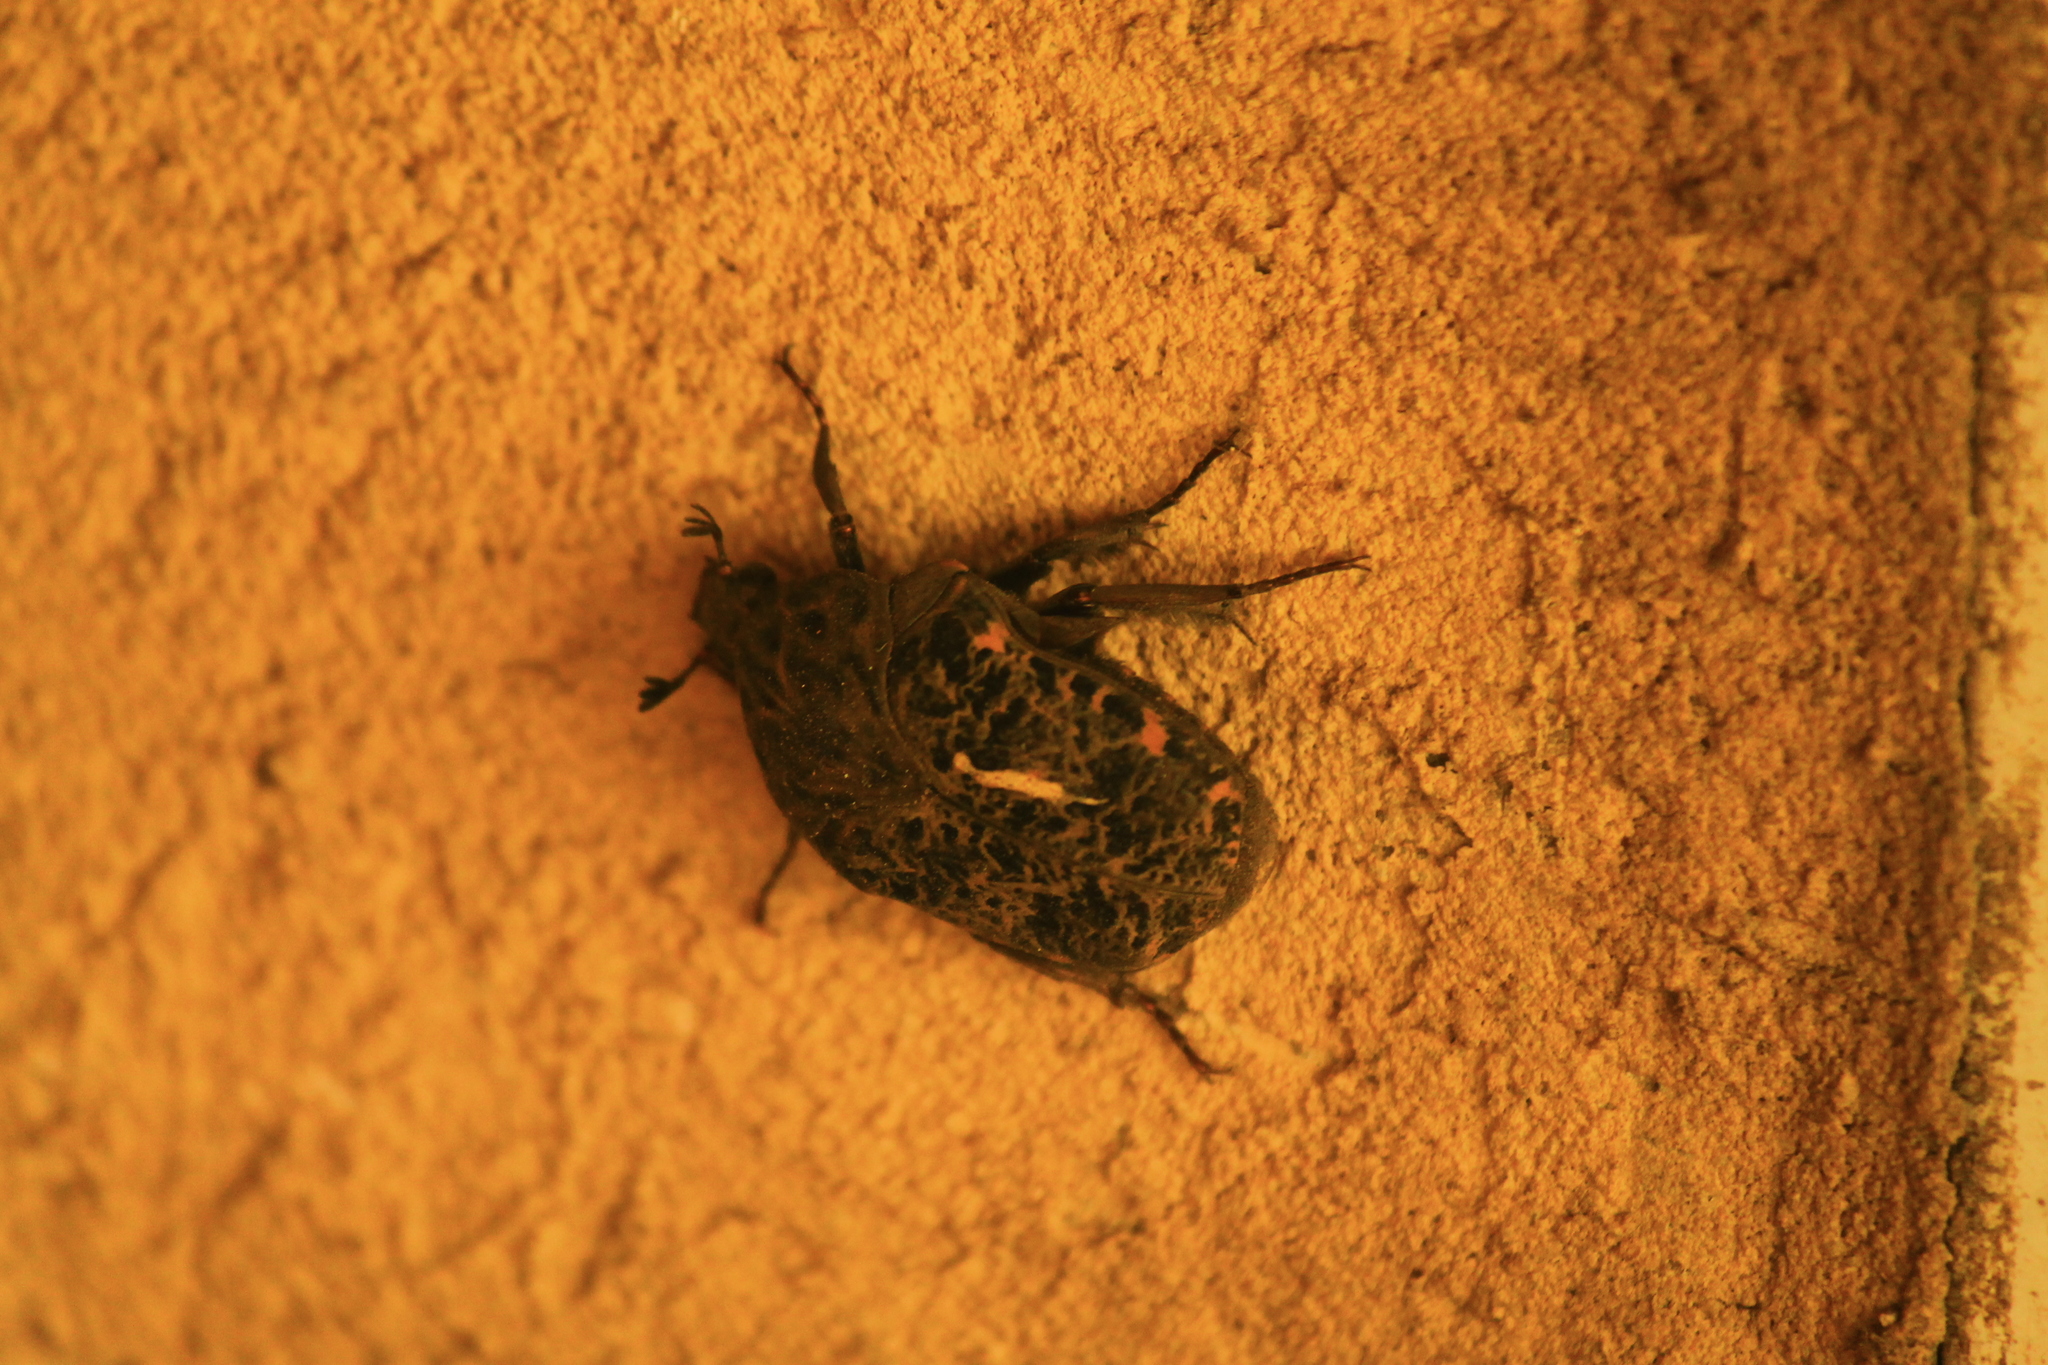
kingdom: Animalia
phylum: Arthropoda
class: Insecta
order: Coleoptera
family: Scarabaeidae
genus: Gymnetis
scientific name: Gymnetis chalcipes
